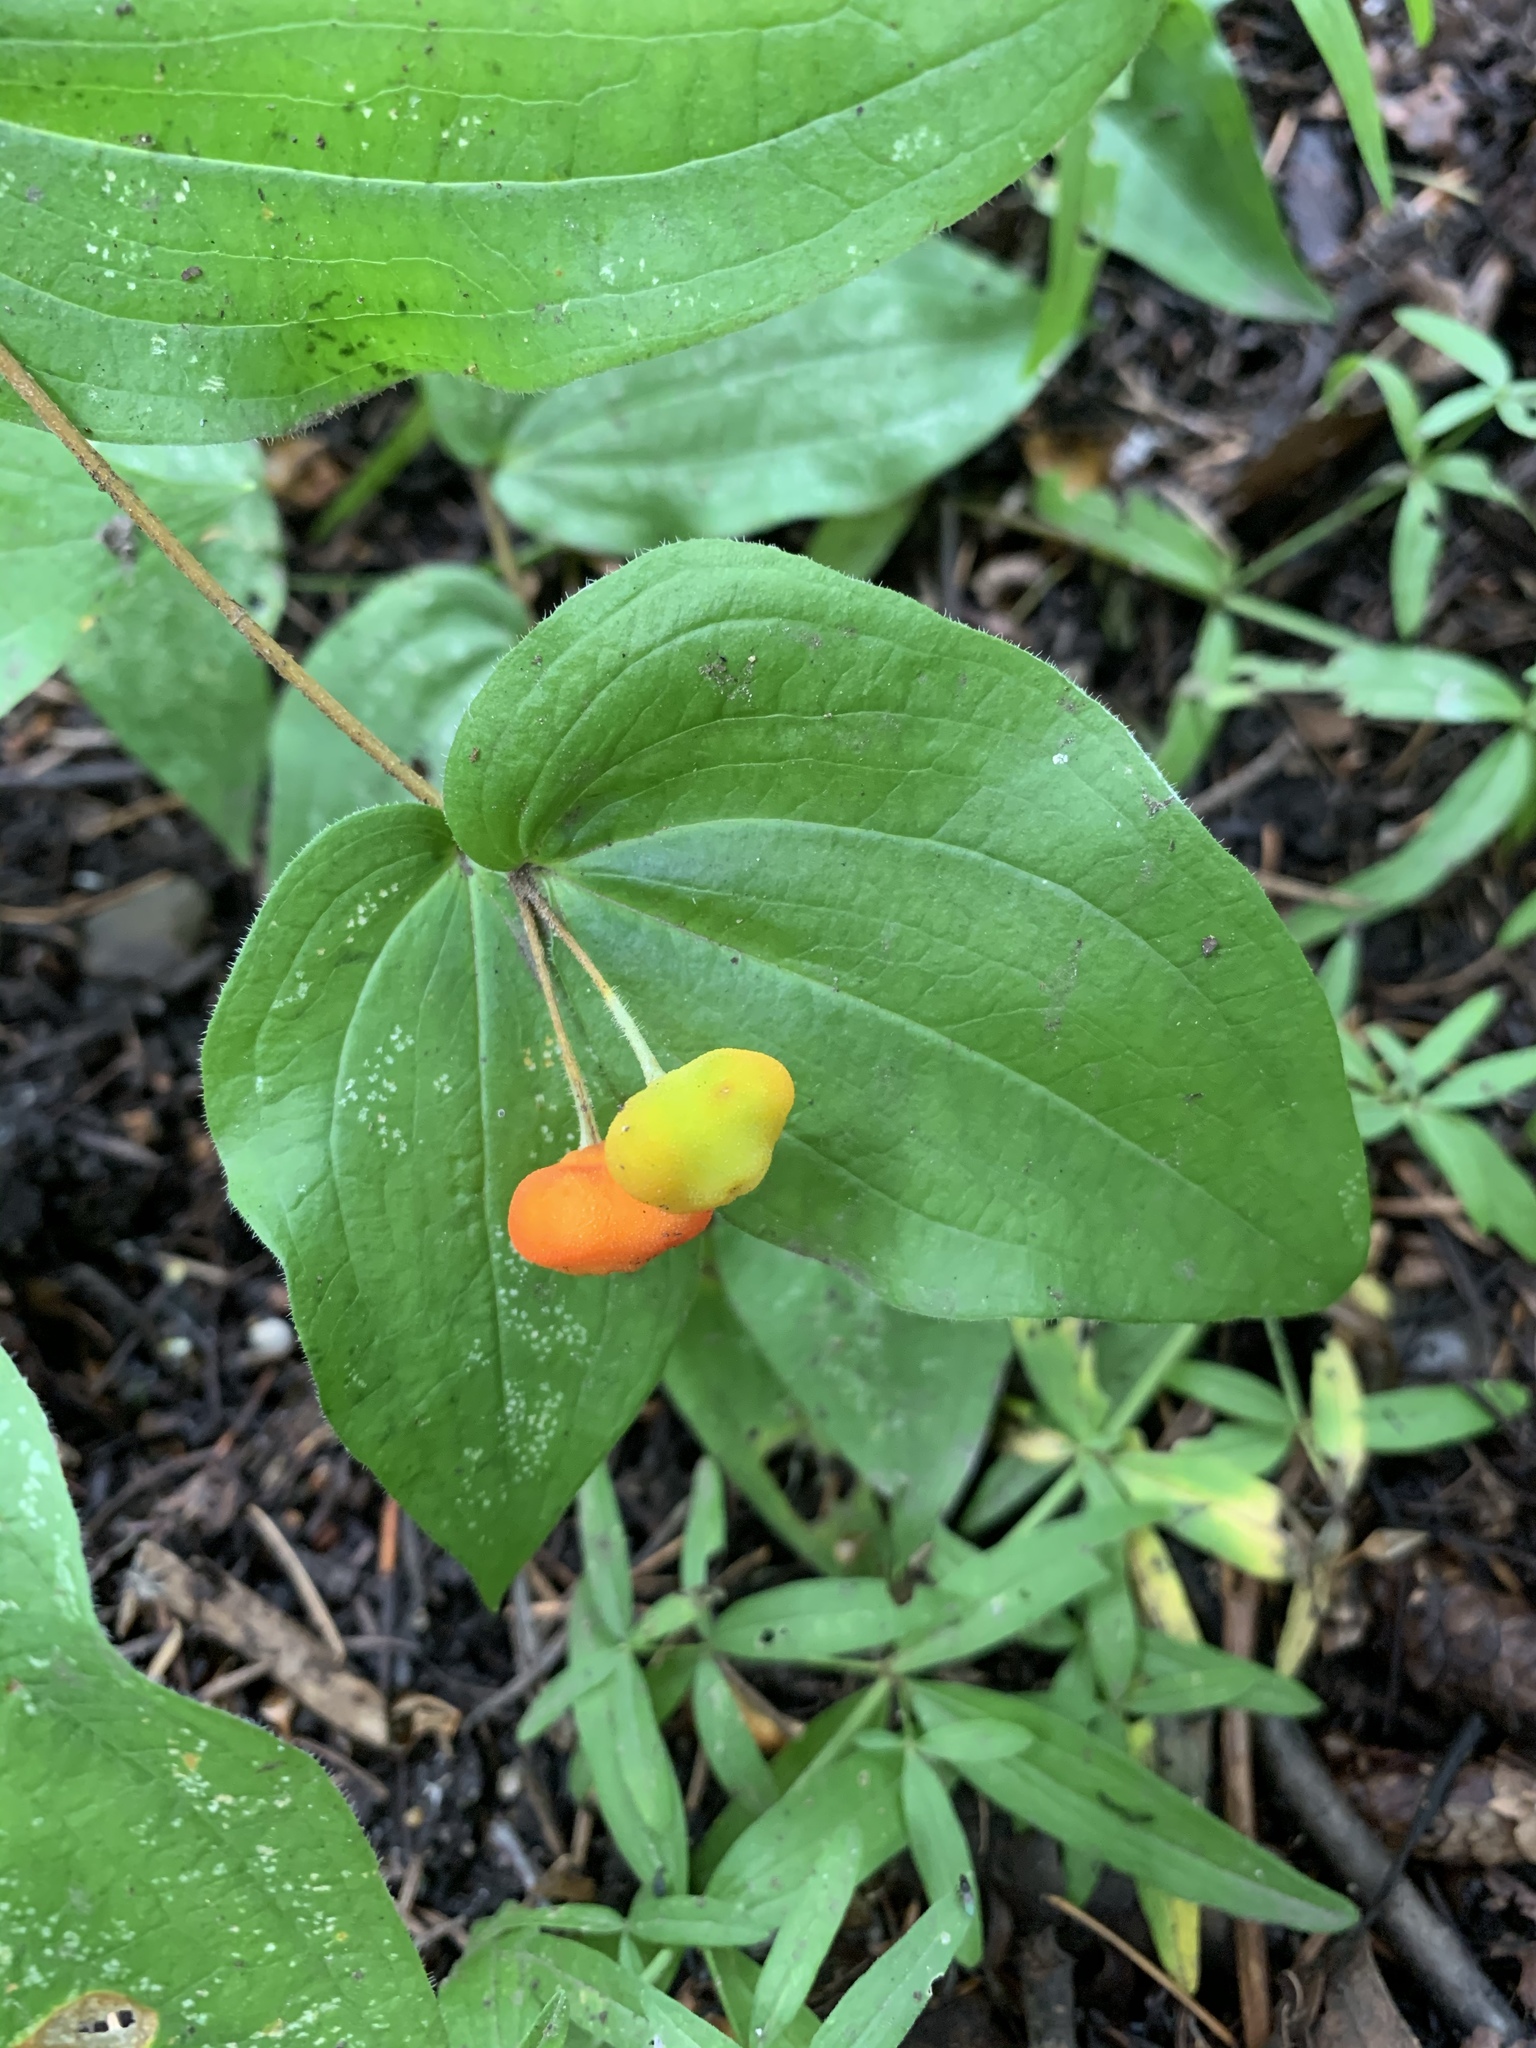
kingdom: Plantae
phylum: Tracheophyta
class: Liliopsida
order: Liliales
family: Liliaceae
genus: Prosartes
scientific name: Prosartes trachycarpa
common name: Rough-fruit fairy-bells
